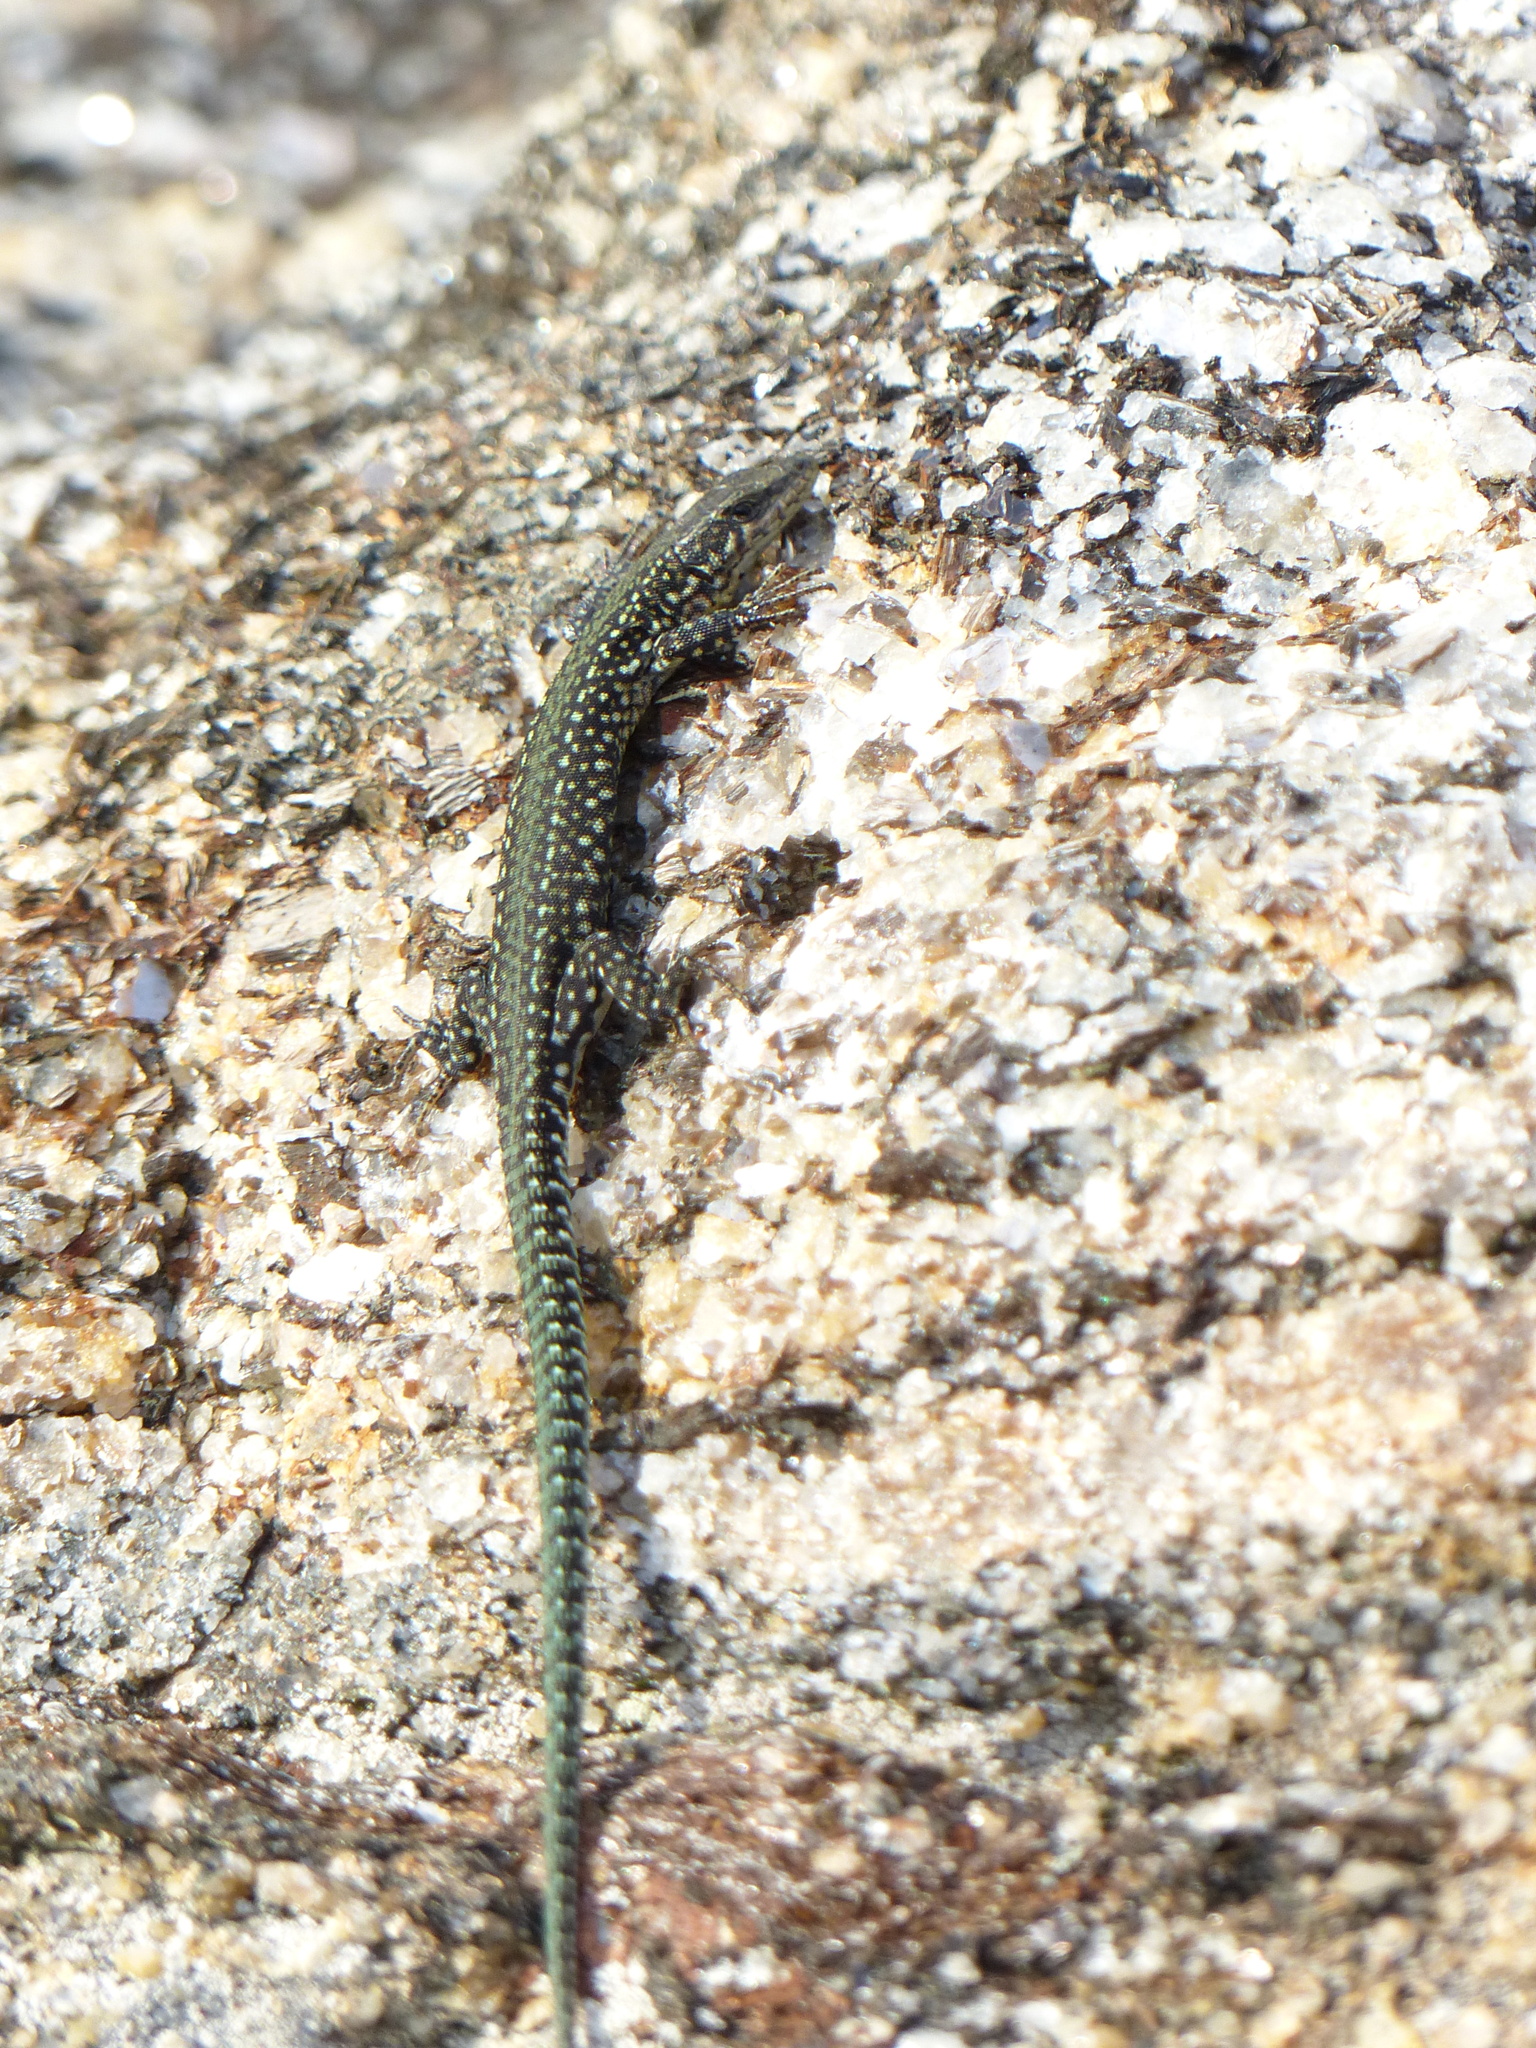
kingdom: Animalia
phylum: Chordata
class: Squamata
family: Lacertidae
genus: Podarcis
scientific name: Podarcis
